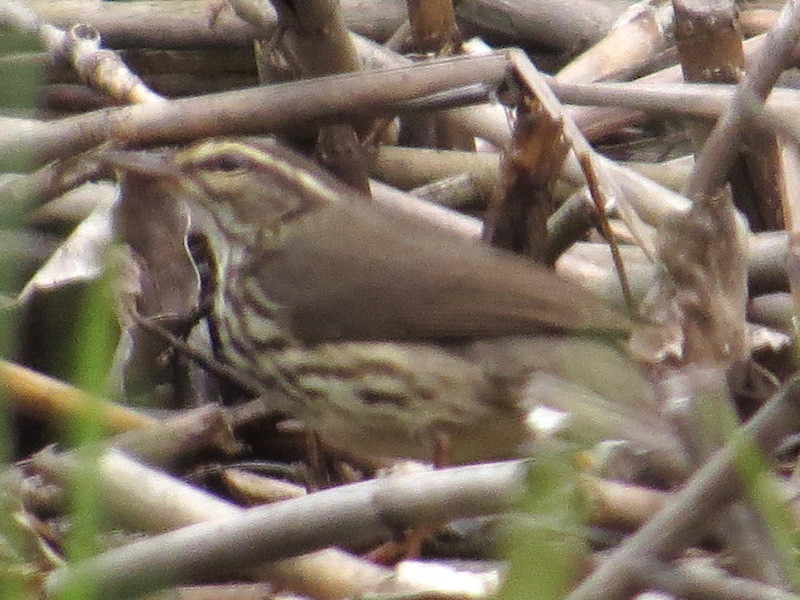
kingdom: Animalia
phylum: Chordata
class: Aves
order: Passeriformes
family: Parulidae
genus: Parkesia
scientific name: Parkesia noveboracensis
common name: Northern waterthrush
